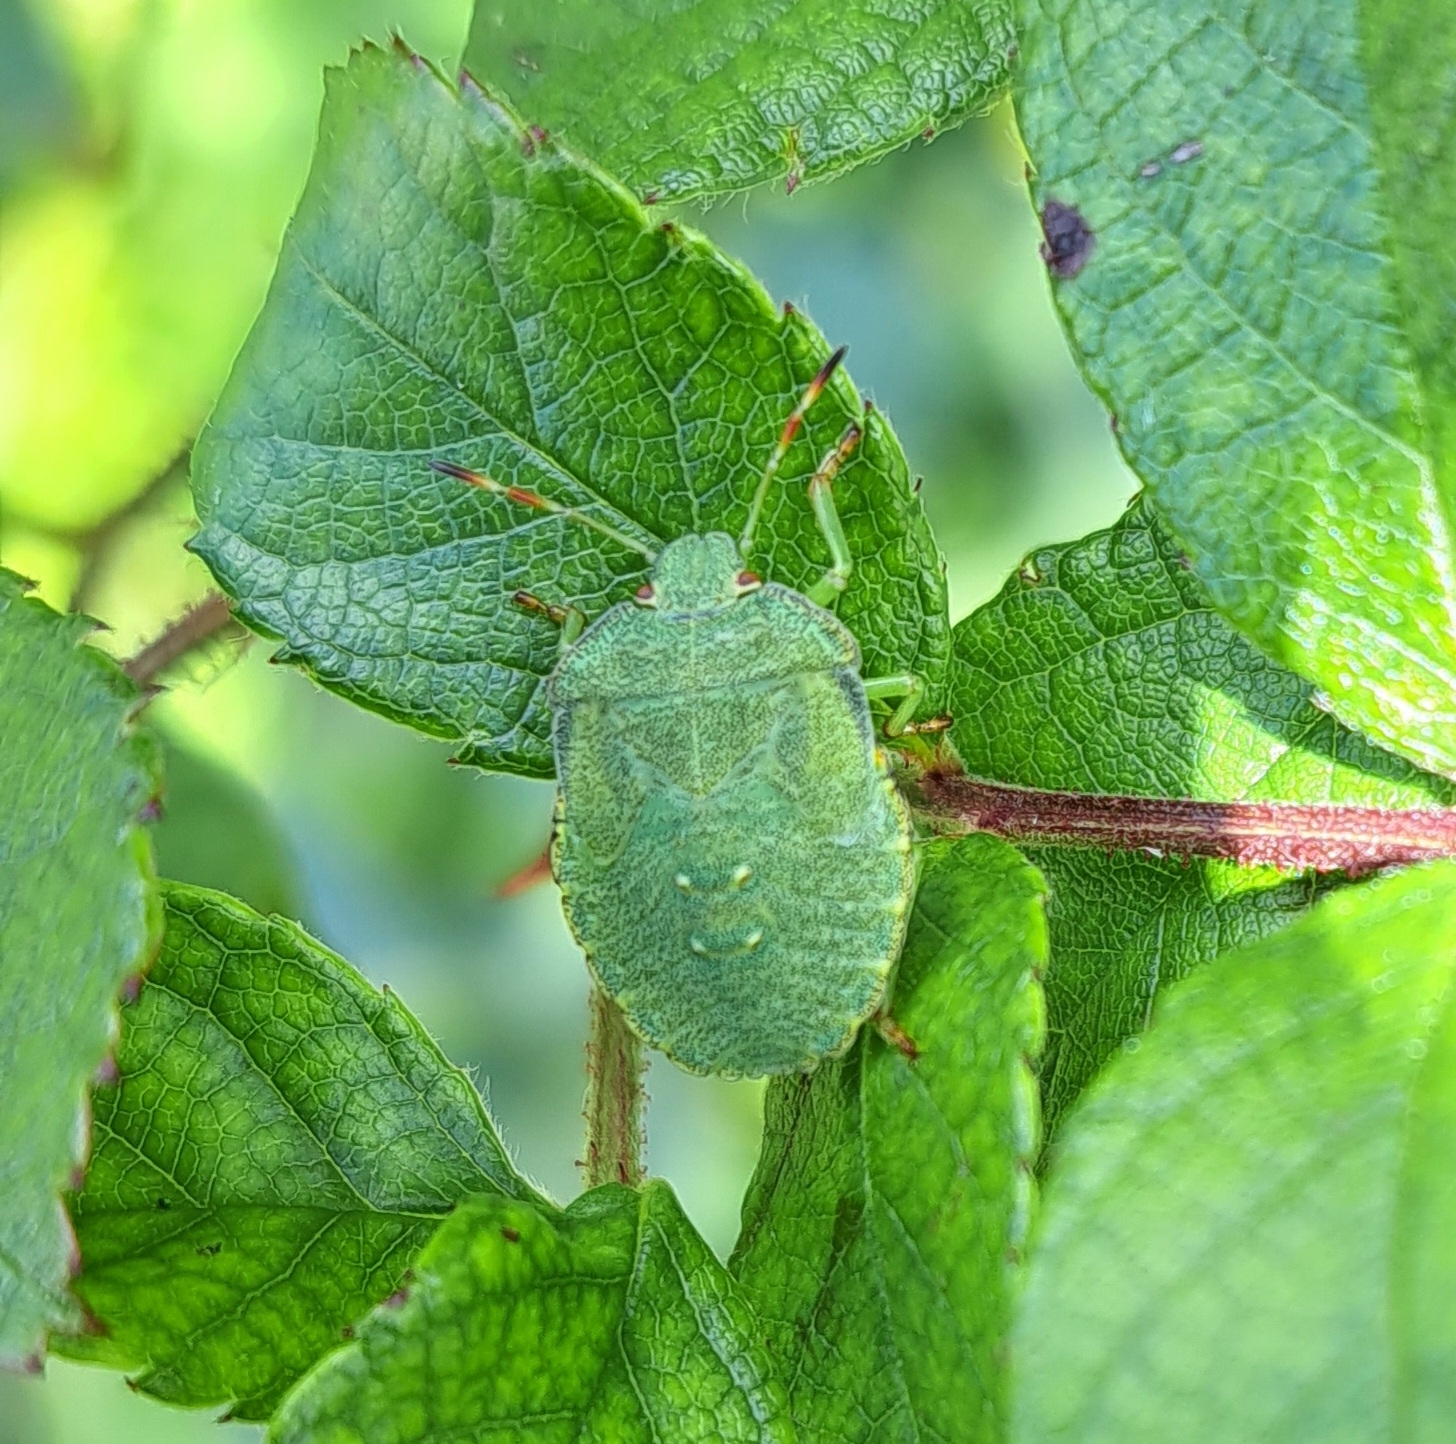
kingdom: Animalia
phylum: Arthropoda
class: Insecta
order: Hemiptera
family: Pentatomidae
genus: Palomena
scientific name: Palomena prasina
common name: Green shieldbug
